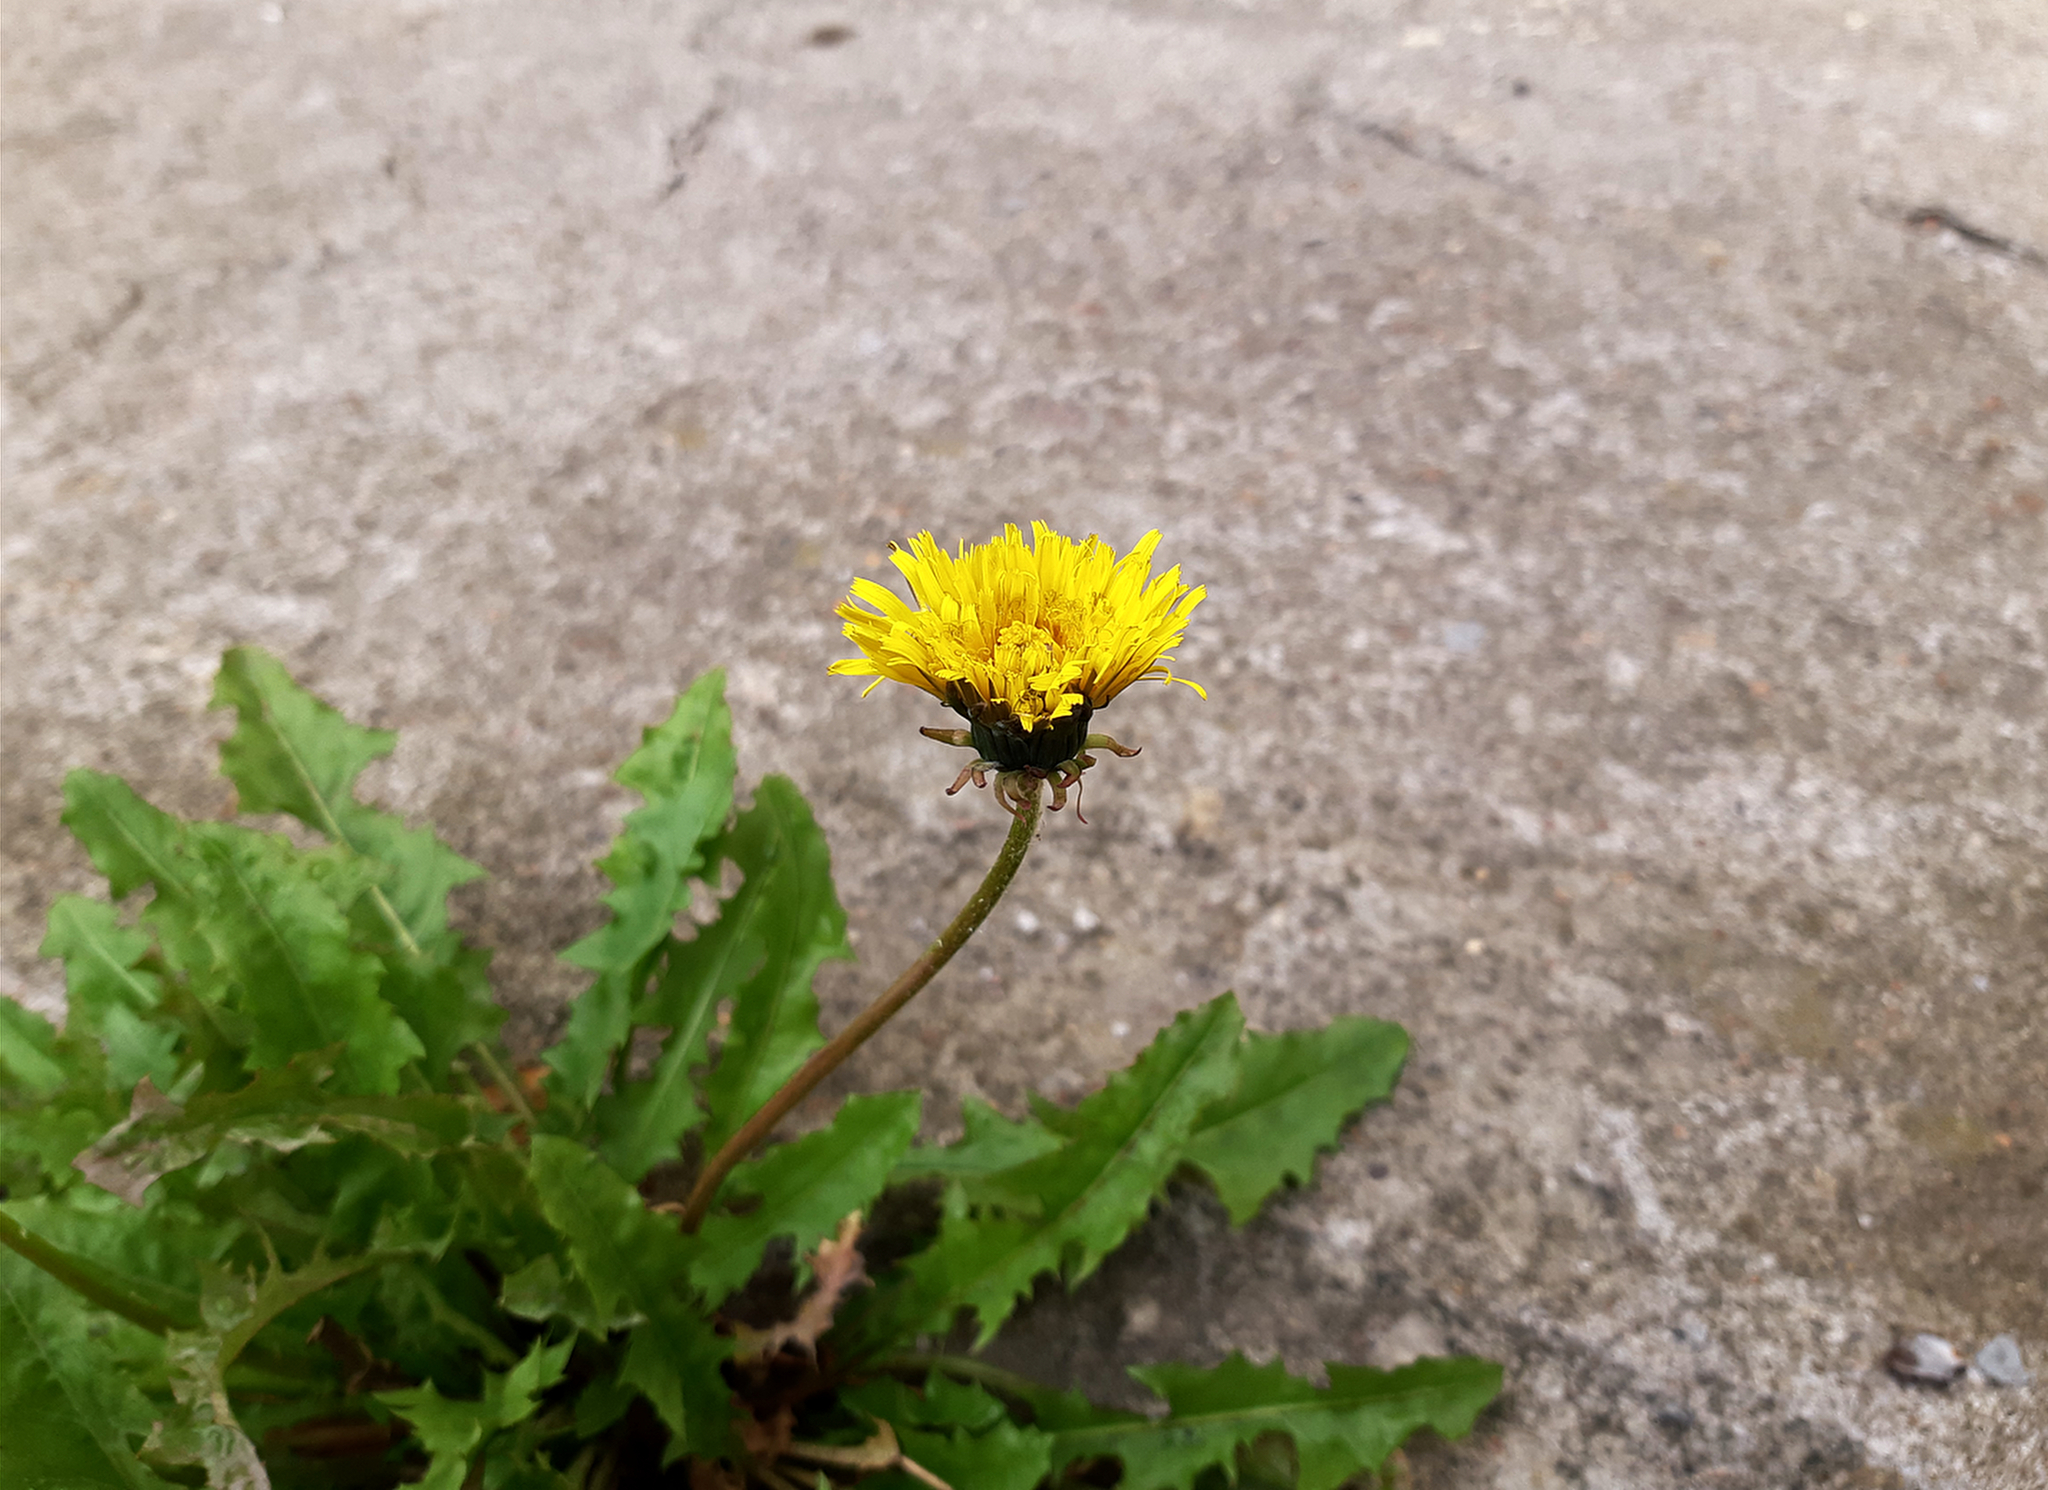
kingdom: Plantae
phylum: Tracheophyta
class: Magnoliopsida
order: Asterales
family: Asteraceae
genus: Taraxacum
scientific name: Taraxacum officinale
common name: Common dandelion
